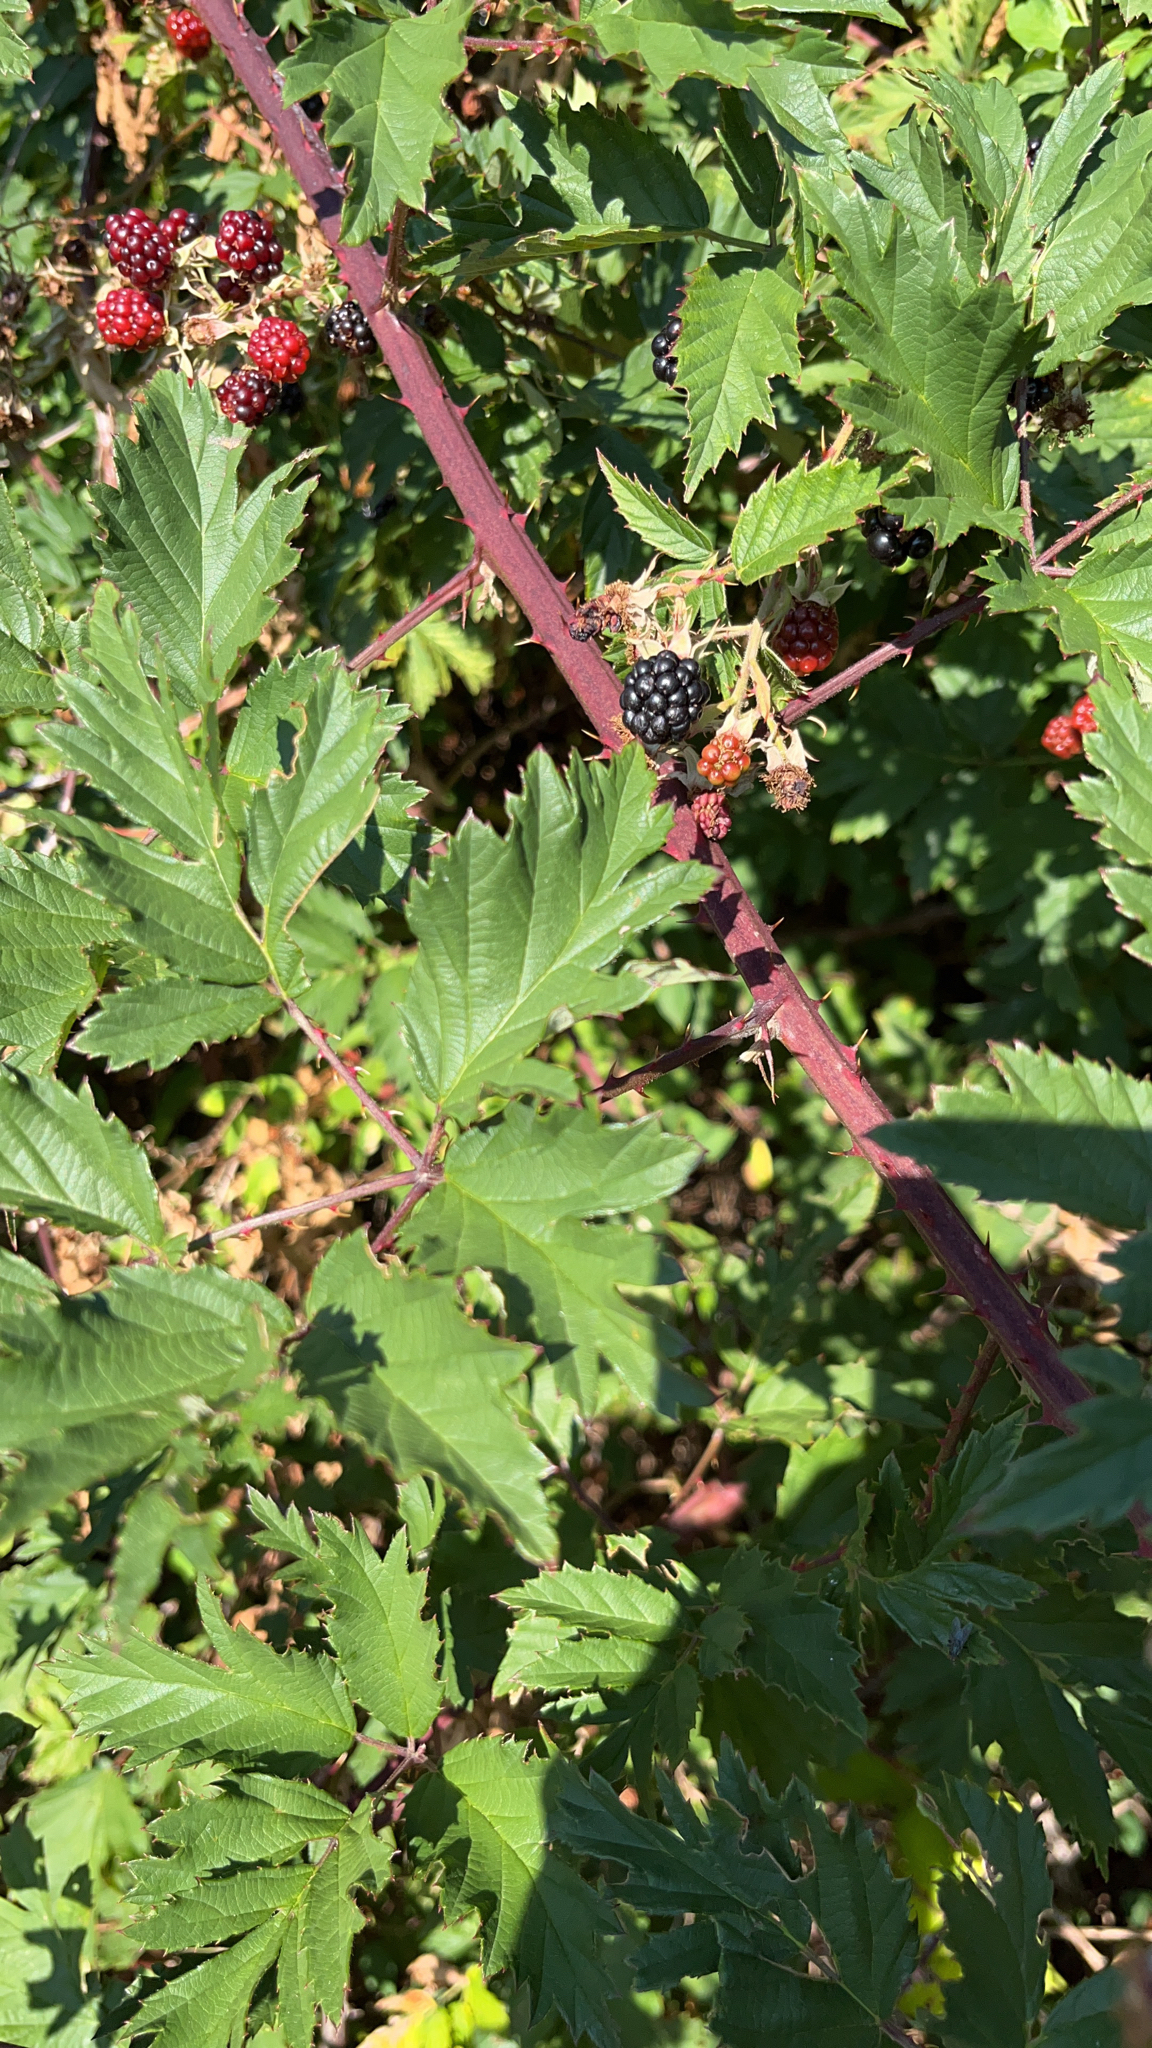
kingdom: Plantae
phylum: Tracheophyta
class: Magnoliopsida
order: Rosales
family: Rosaceae
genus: Rubus
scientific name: Rubus laciniatus
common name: Evergreen blackberry
